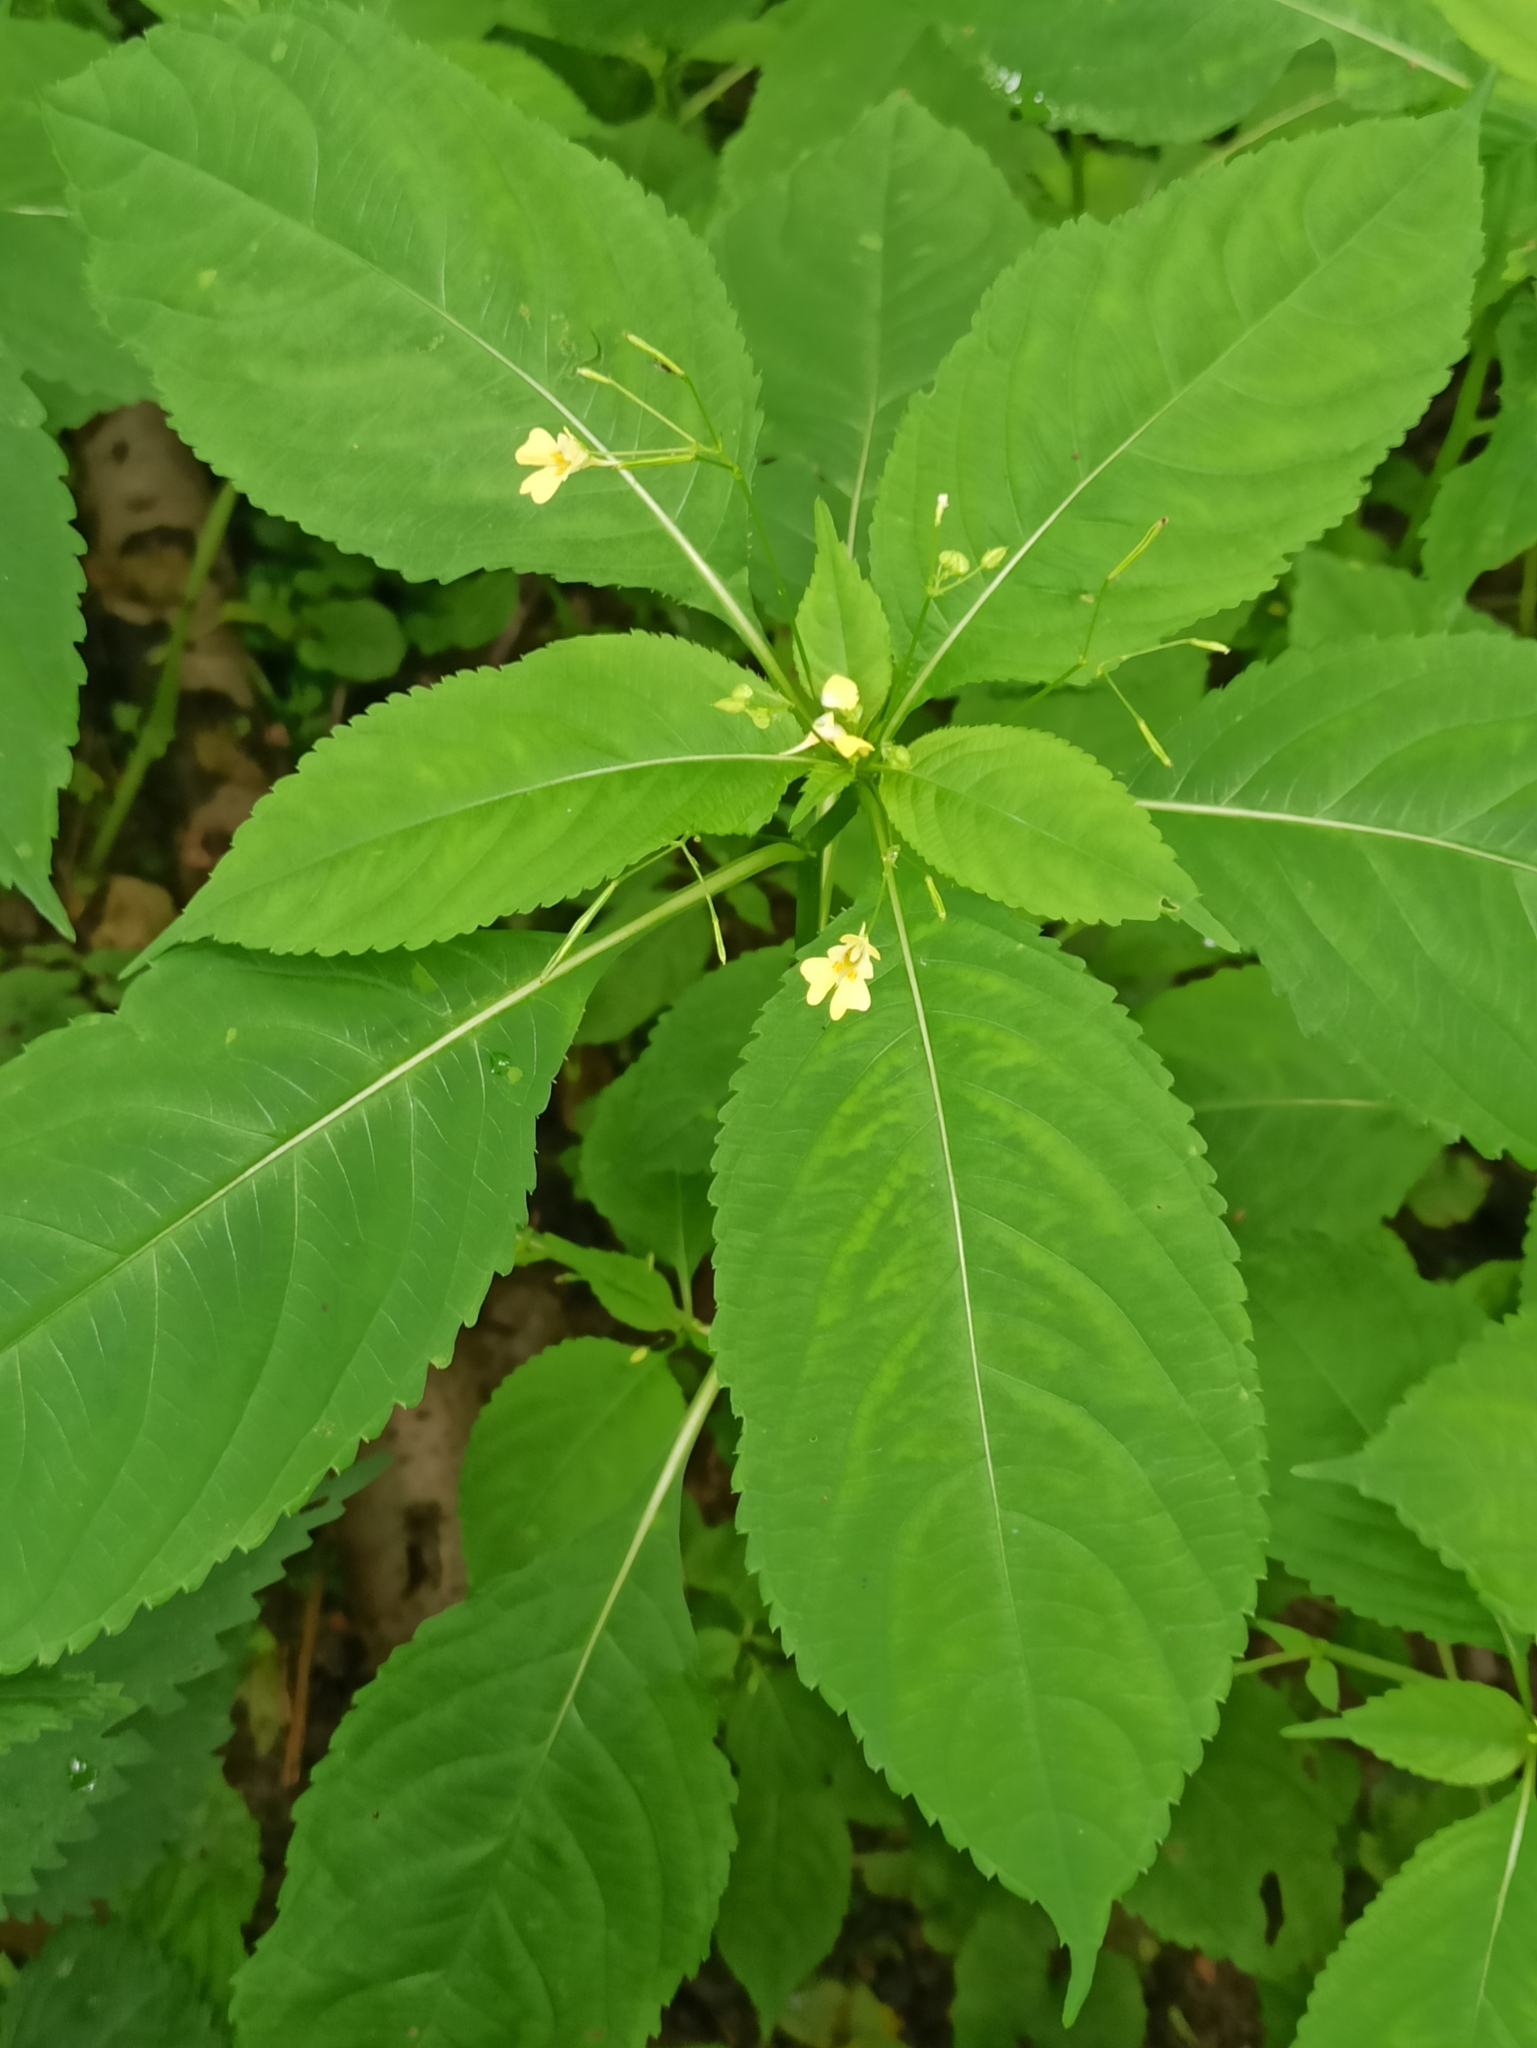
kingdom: Plantae
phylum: Tracheophyta
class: Magnoliopsida
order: Ericales
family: Balsaminaceae
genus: Impatiens
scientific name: Impatiens parviflora
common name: Small balsam
